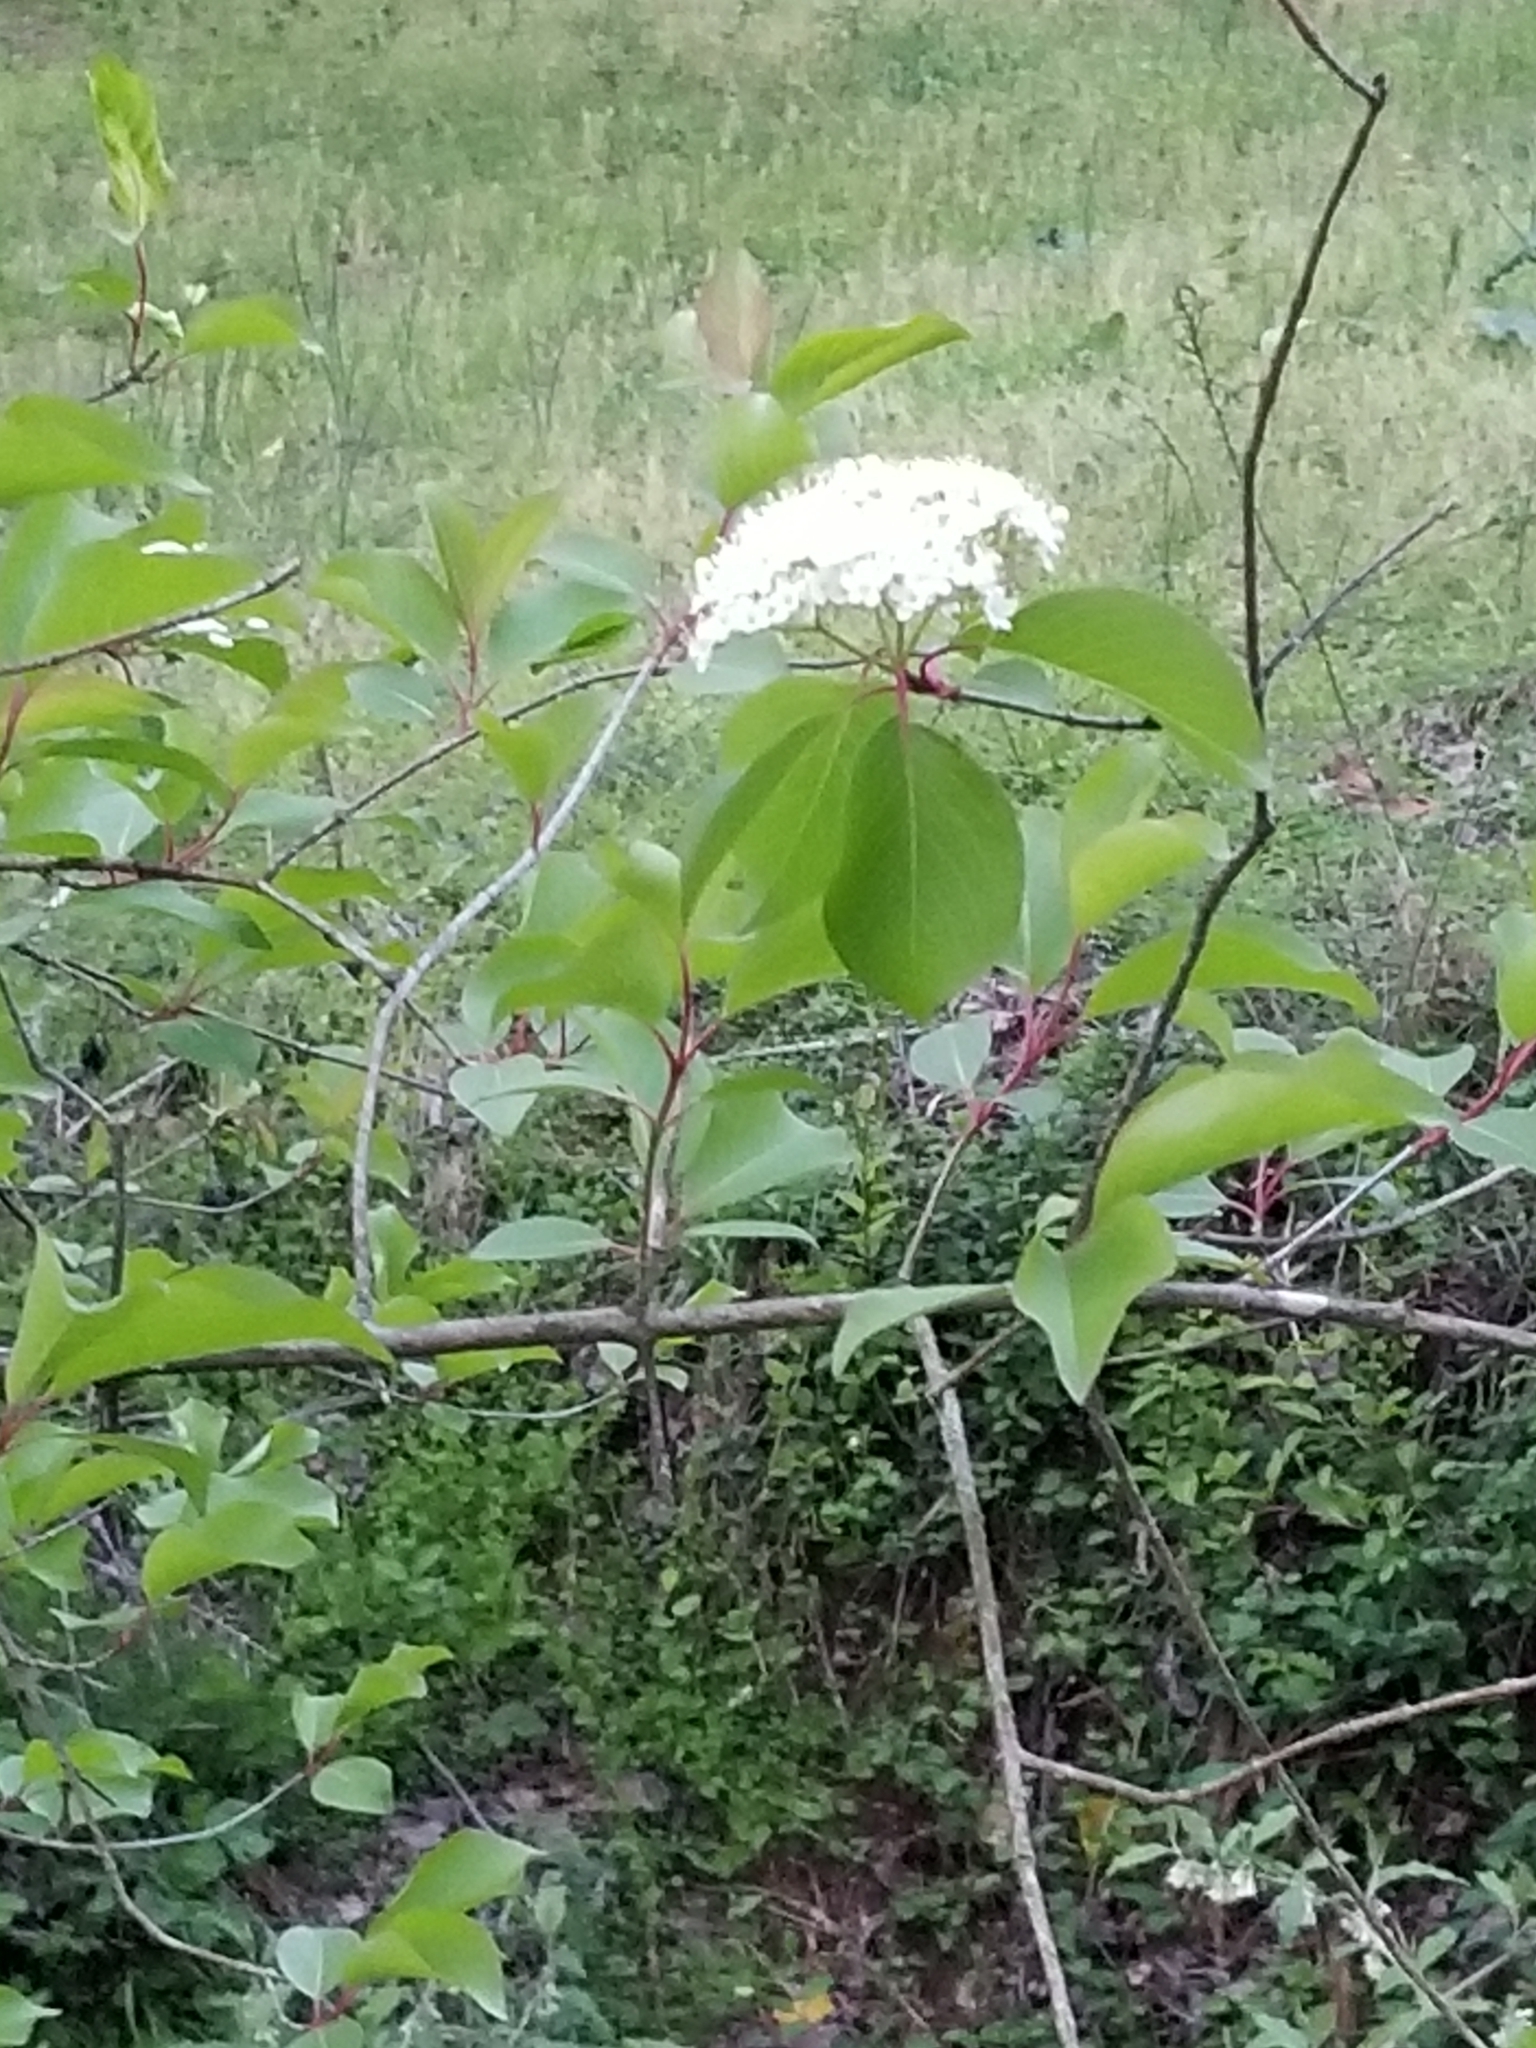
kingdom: Plantae
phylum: Tracheophyta
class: Magnoliopsida
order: Dipsacales
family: Viburnaceae
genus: Viburnum
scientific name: Viburnum prunifolium
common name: Black haw
